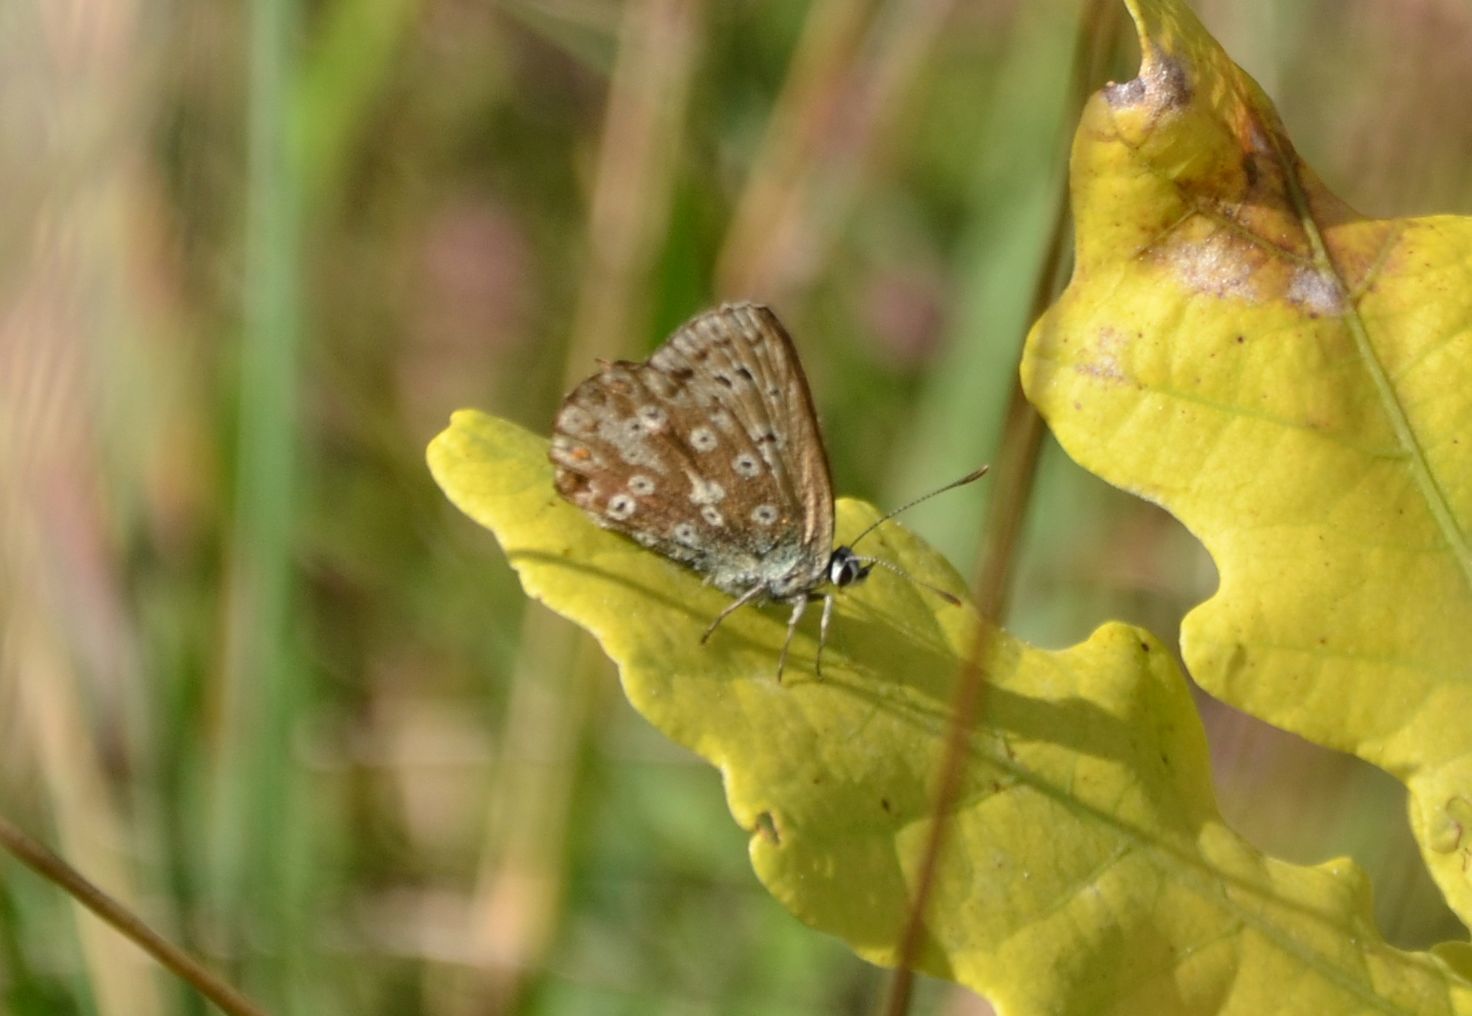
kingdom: Animalia
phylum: Arthropoda
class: Insecta
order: Lepidoptera
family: Lycaenidae
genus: Lysandra
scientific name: Lysandra coridon
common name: Chalkhill blue
